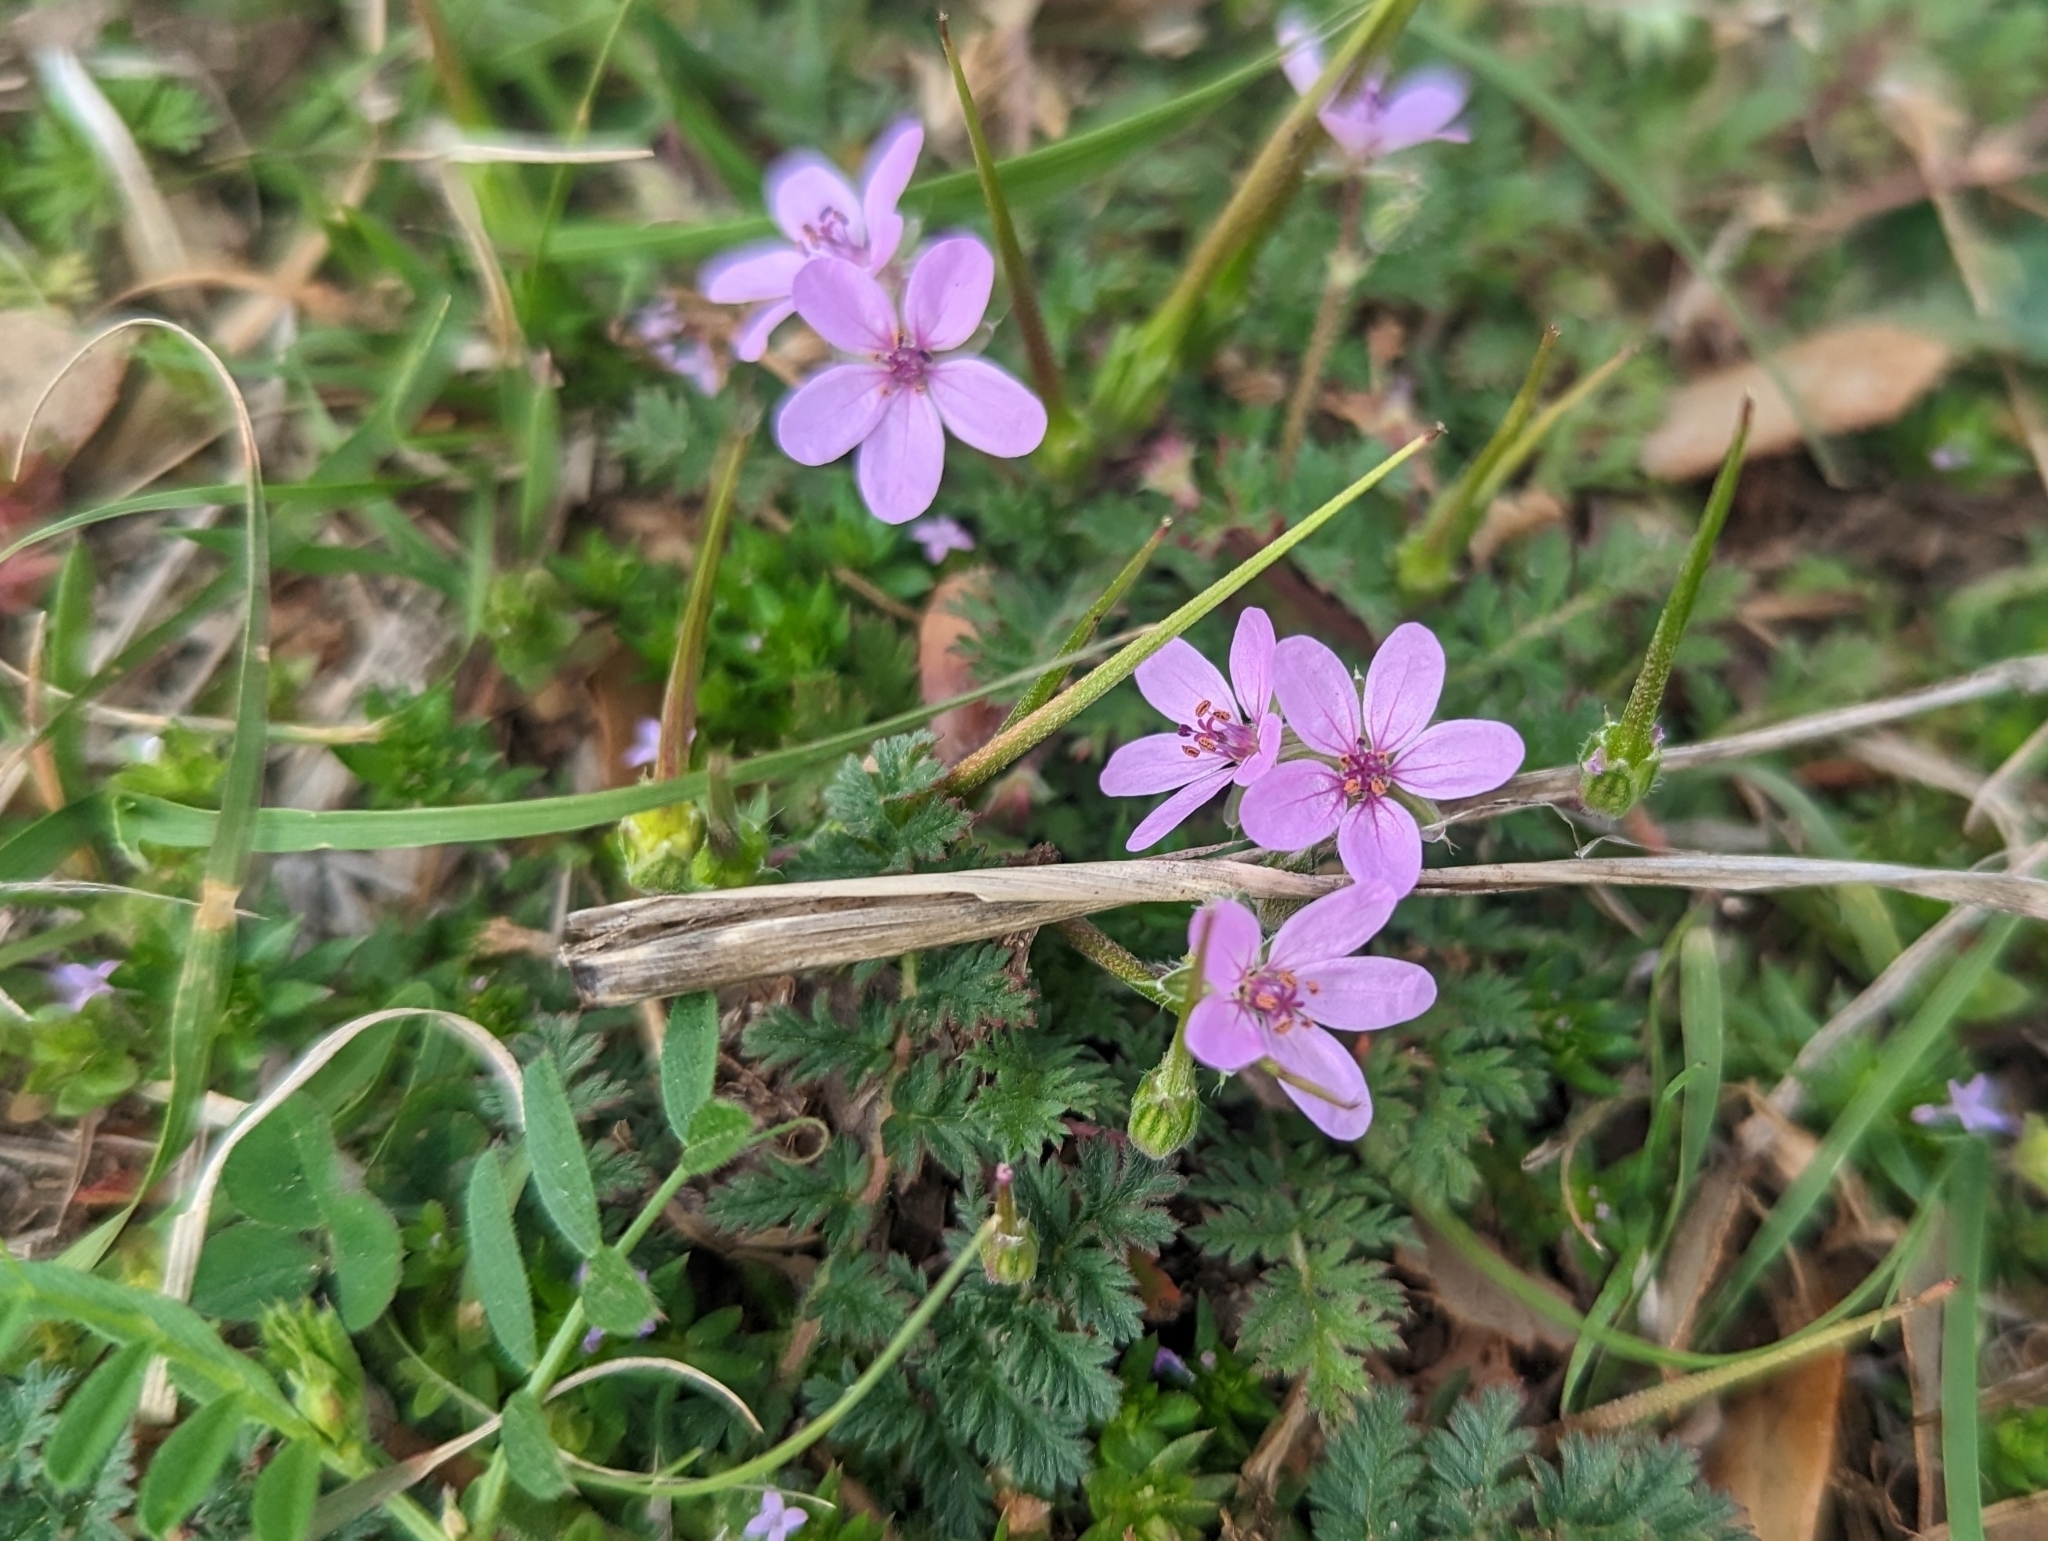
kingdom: Plantae
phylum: Tracheophyta
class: Magnoliopsida
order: Geraniales
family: Geraniaceae
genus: Erodium
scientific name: Erodium cicutarium
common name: Common stork's-bill
